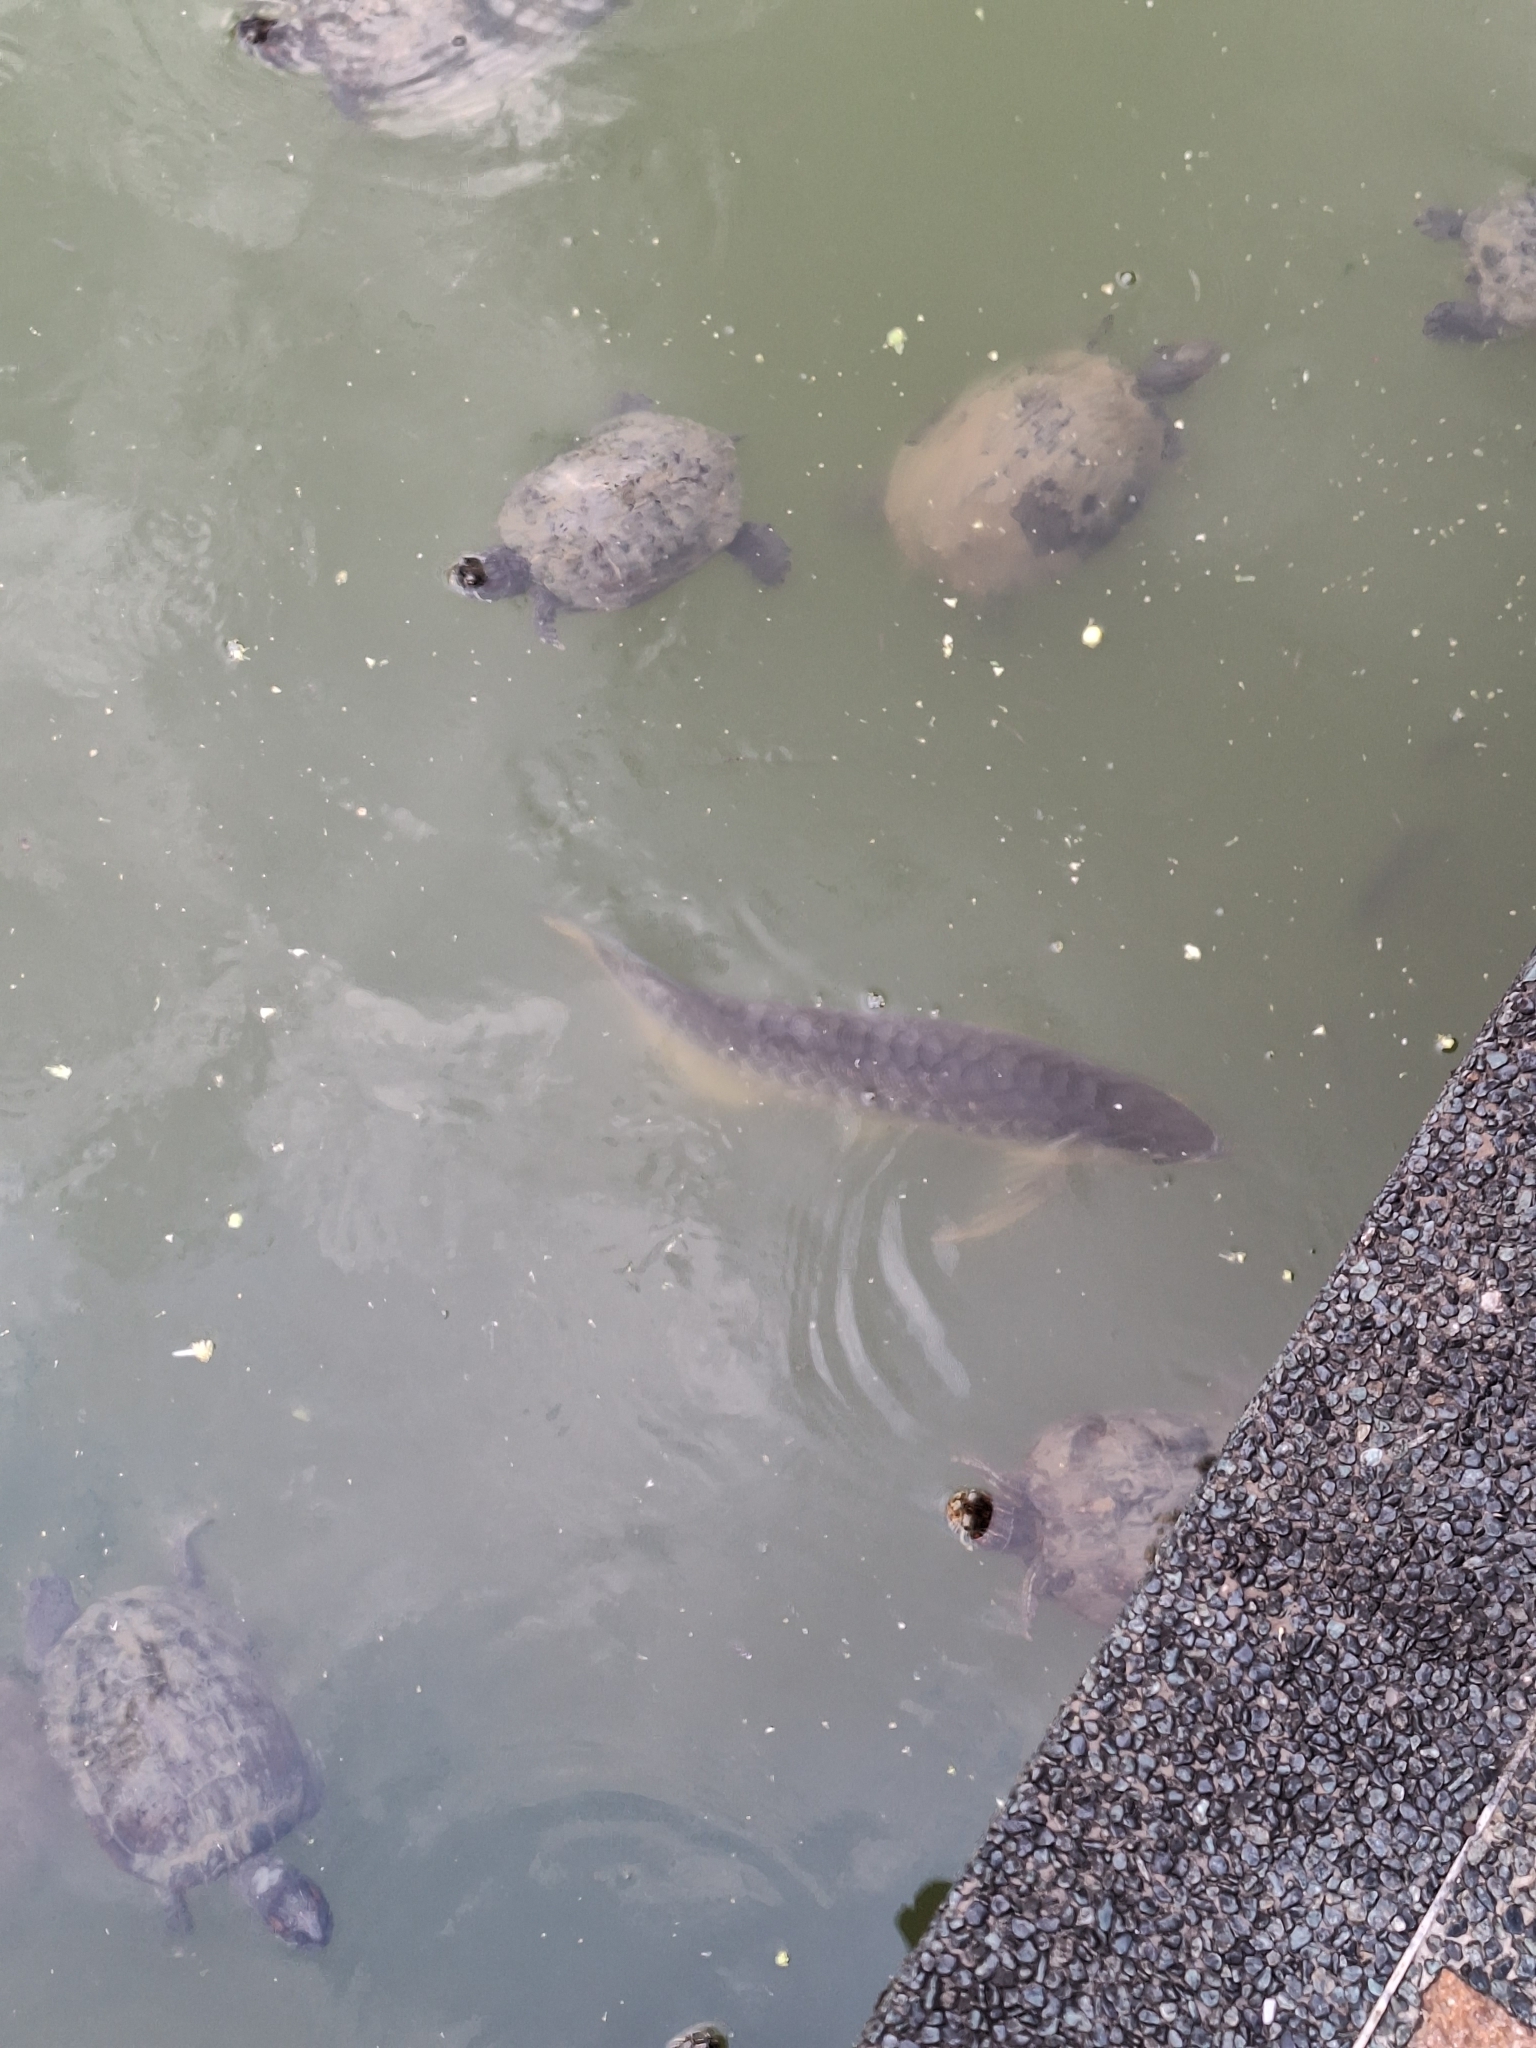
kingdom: Animalia
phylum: Chordata
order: Osteoglossiformes
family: Osteoglossidae
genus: Scleropages
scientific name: Scleropages formosus
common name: Asian bonytongue
